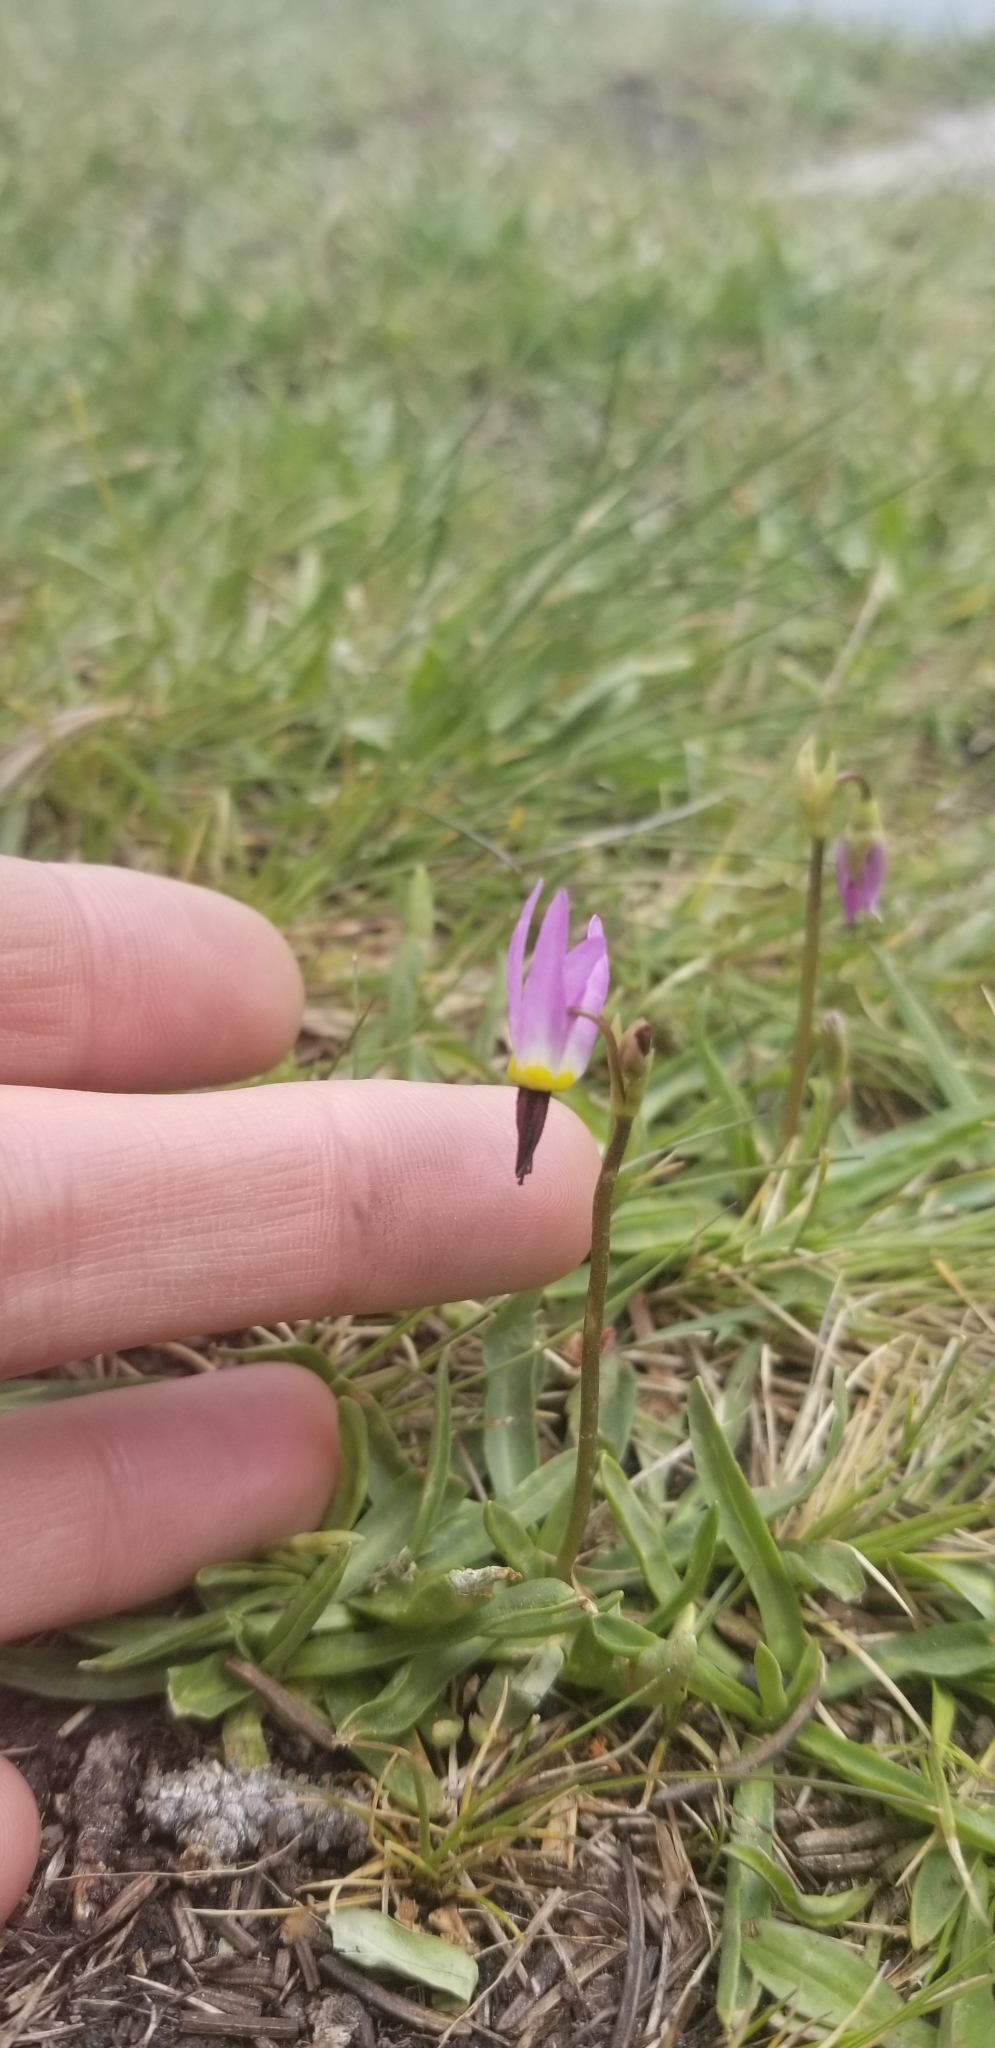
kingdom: Plantae
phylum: Tracheophyta
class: Magnoliopsida
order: Ericales
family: Primulaceae
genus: Dodecatheon
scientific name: Dodecatheon alpinum
